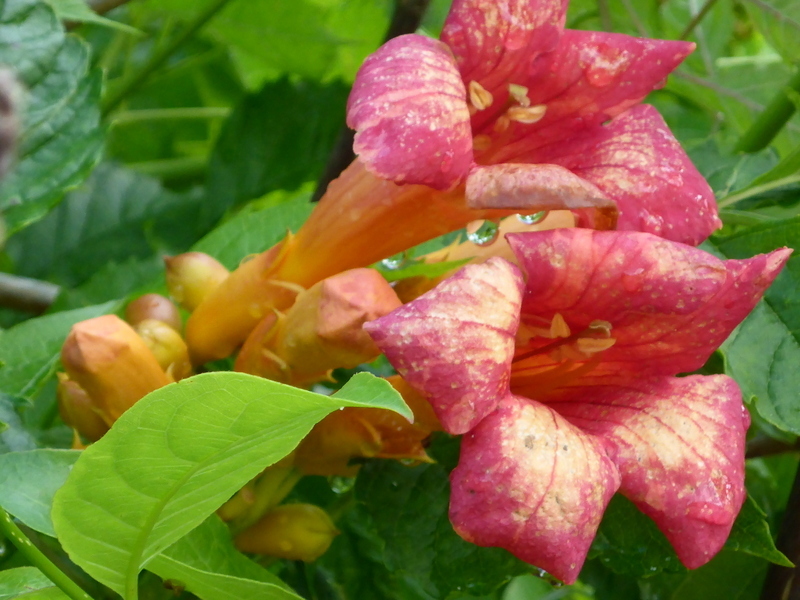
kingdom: Plantae
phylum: Tracheophyta
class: Magnoliopsida
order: Lamiales
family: Bignoniaceae
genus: Campsis
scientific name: Campsis radicans
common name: Trumpet-creeper
